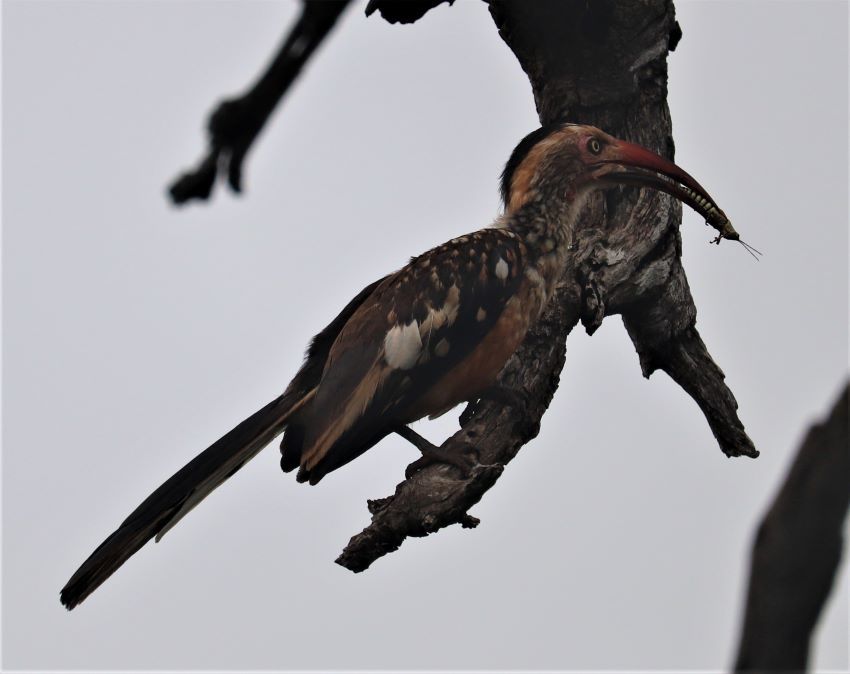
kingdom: Animalia
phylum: Chordata
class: Aves
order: Bucerotiformes
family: Bucerotidae
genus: Tockus
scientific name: Tockus rufirostris
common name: Southern red-billed hornbill
